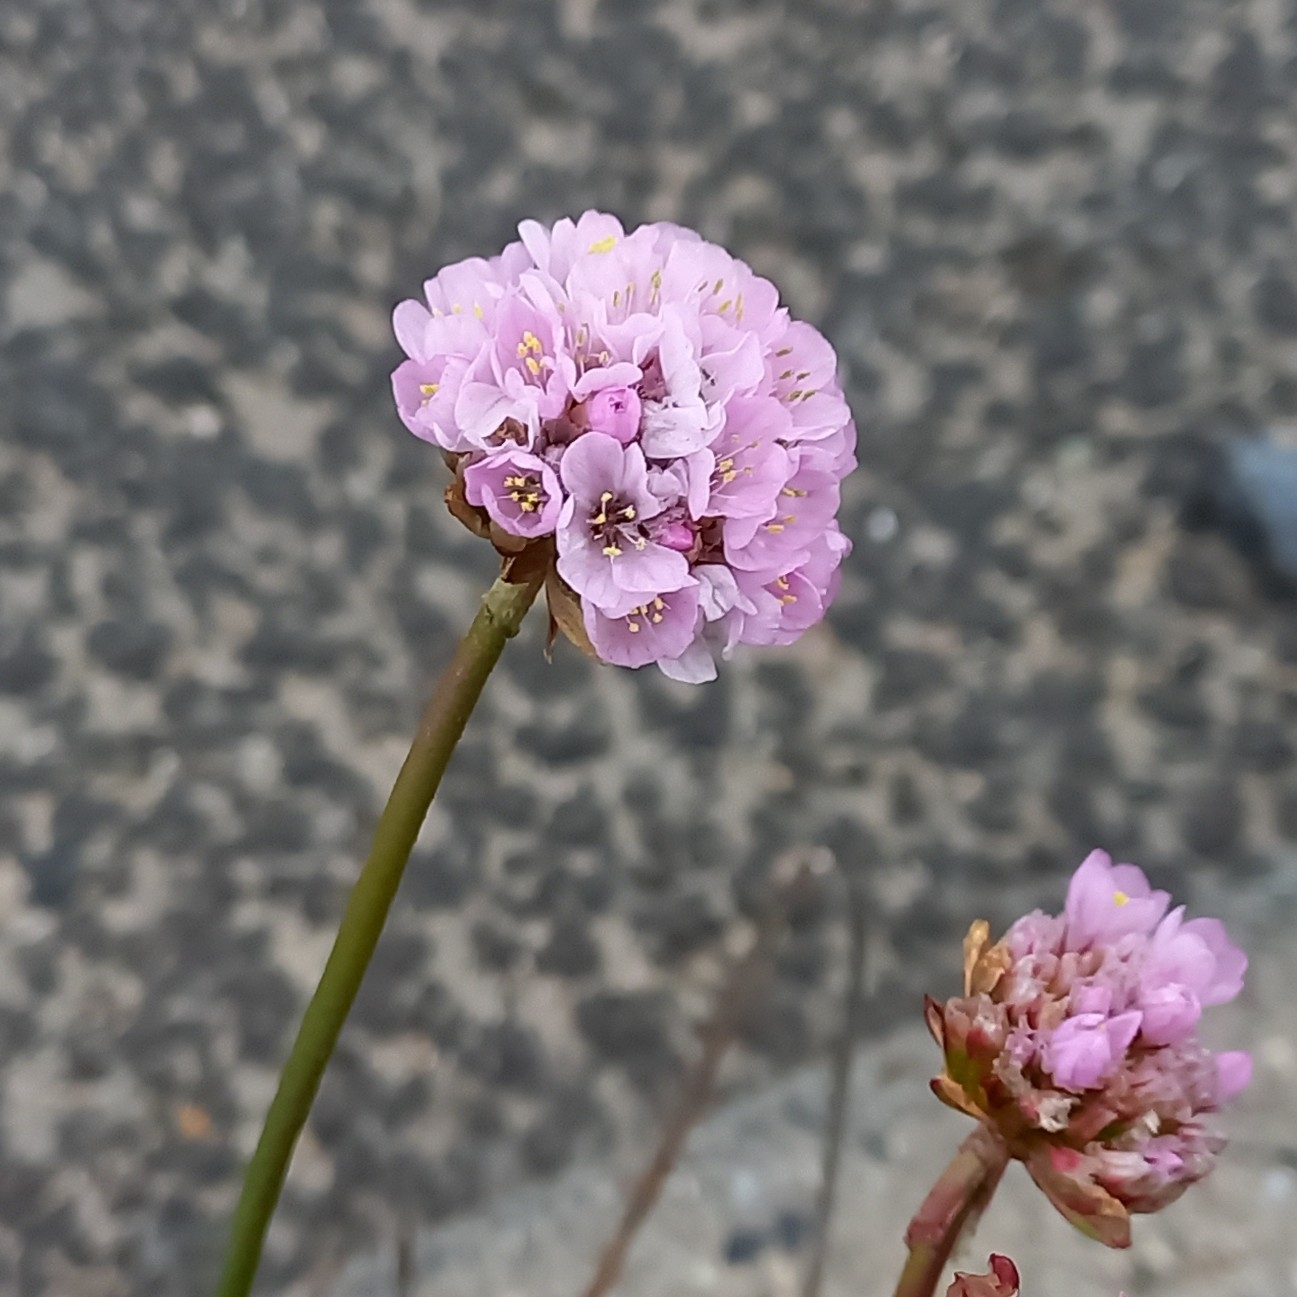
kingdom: Plantae
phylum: Tracheophyta
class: Magnoliopsida
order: Caryophyllales
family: Plumbaginaceae
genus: Armeria
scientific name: Armeria maritima
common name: Thrift
